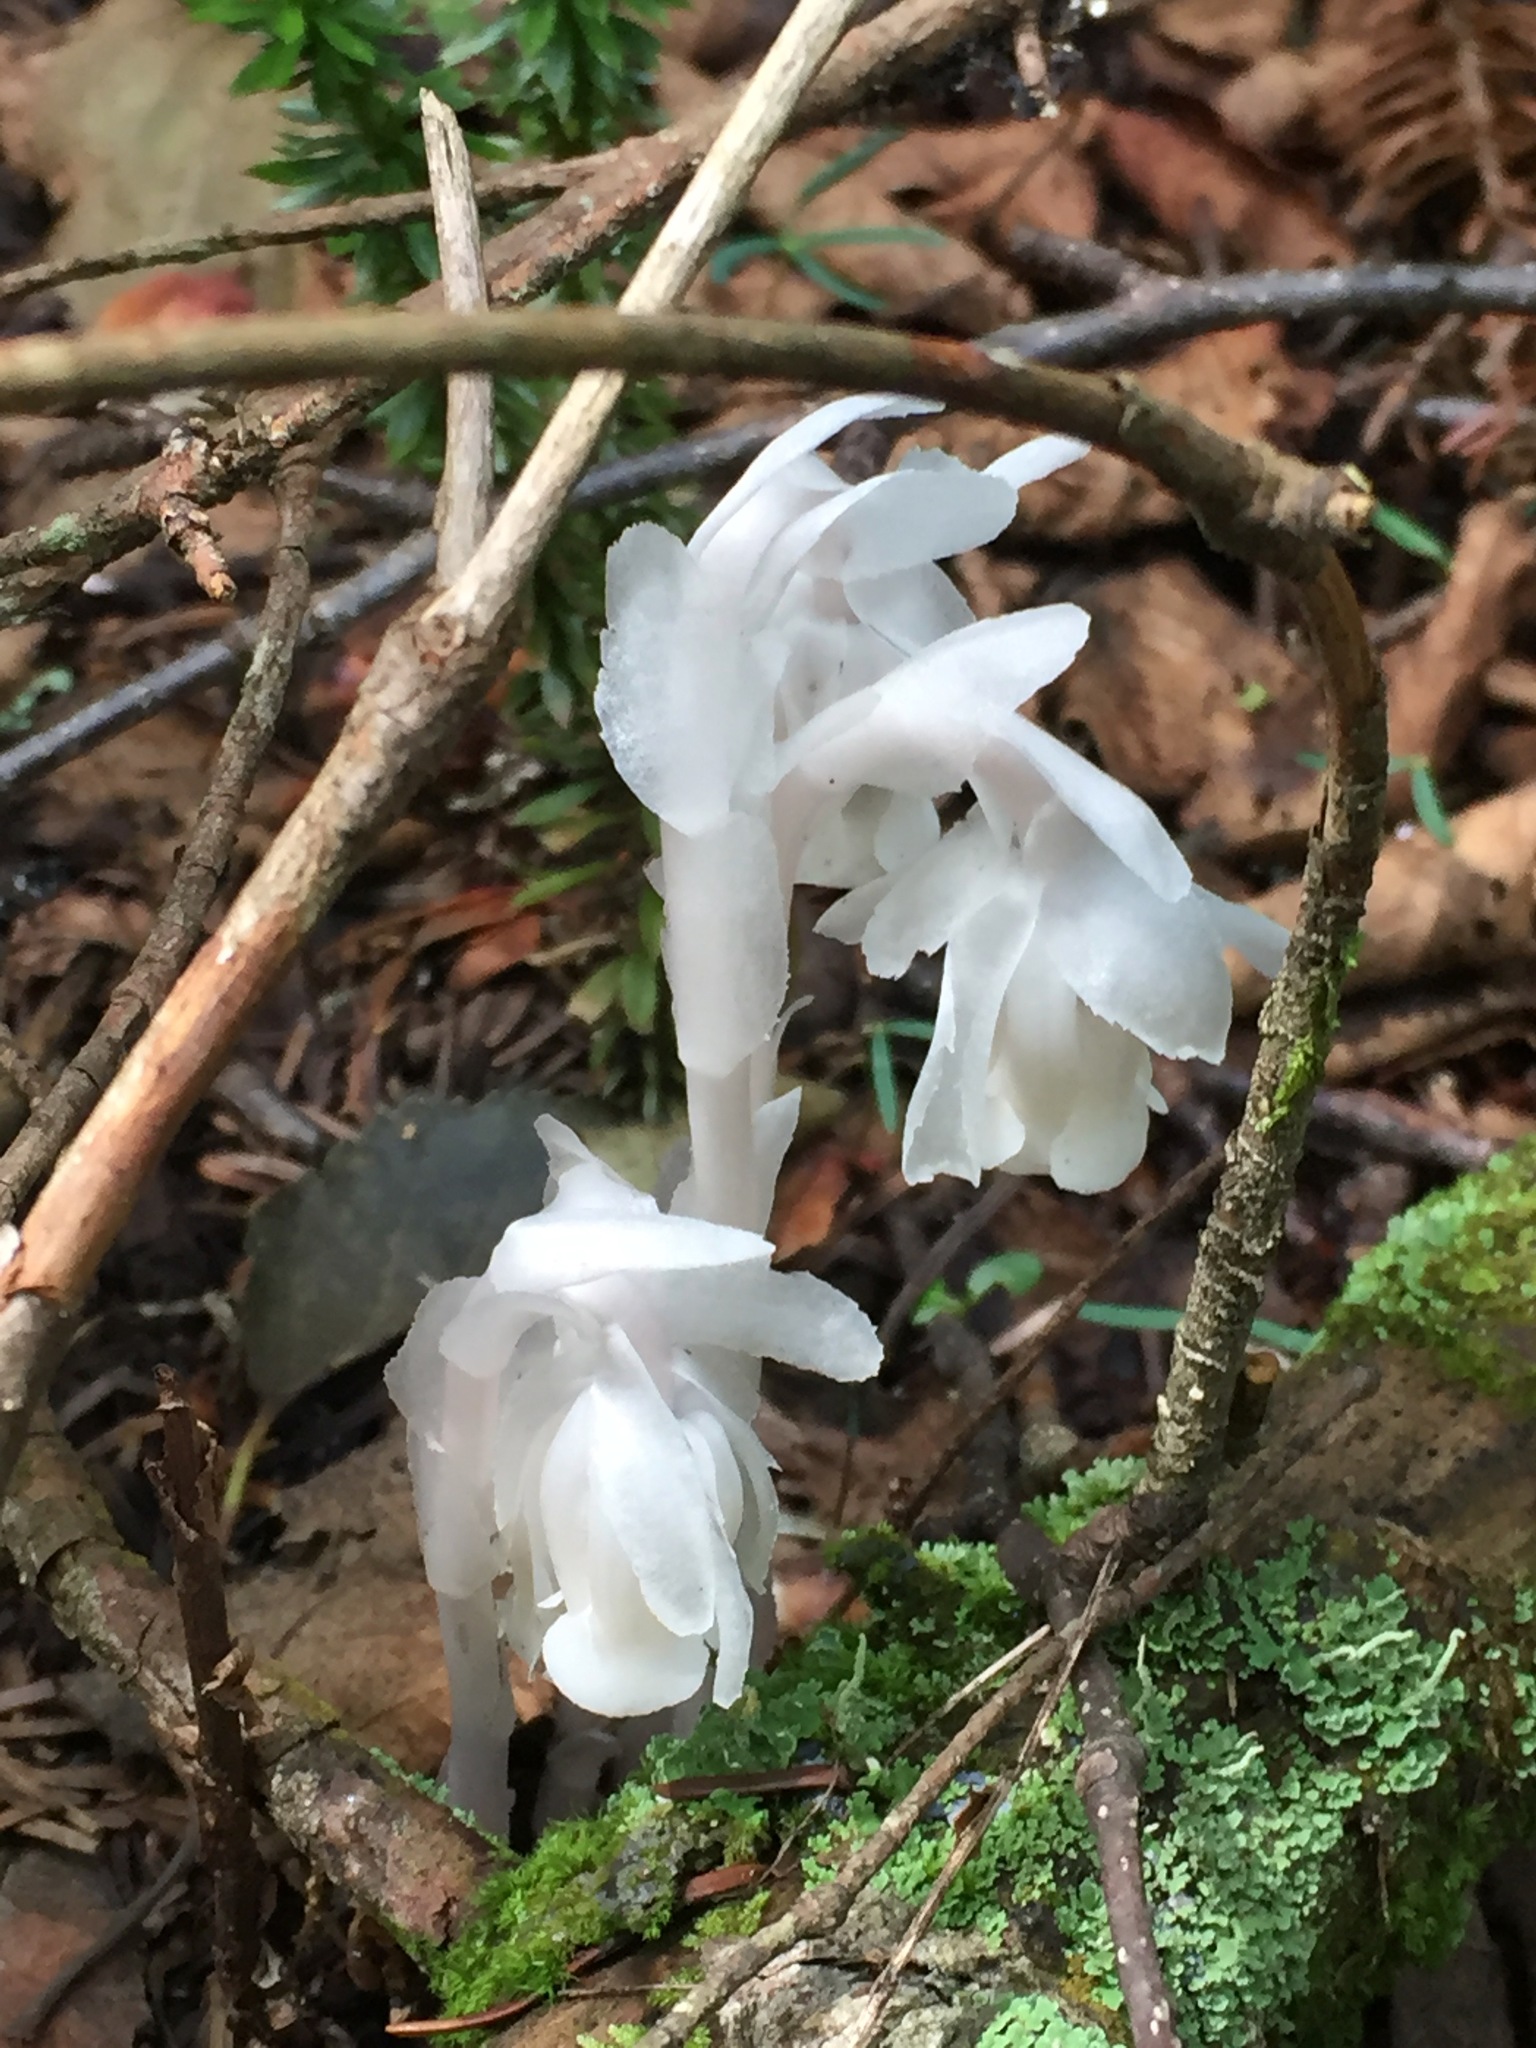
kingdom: Plantae
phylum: Tracheophyta
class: Magnoliopsida
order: Ericales
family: Ericaceae
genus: Monotropa
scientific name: Monotropa uniflora
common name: Convulsion root
